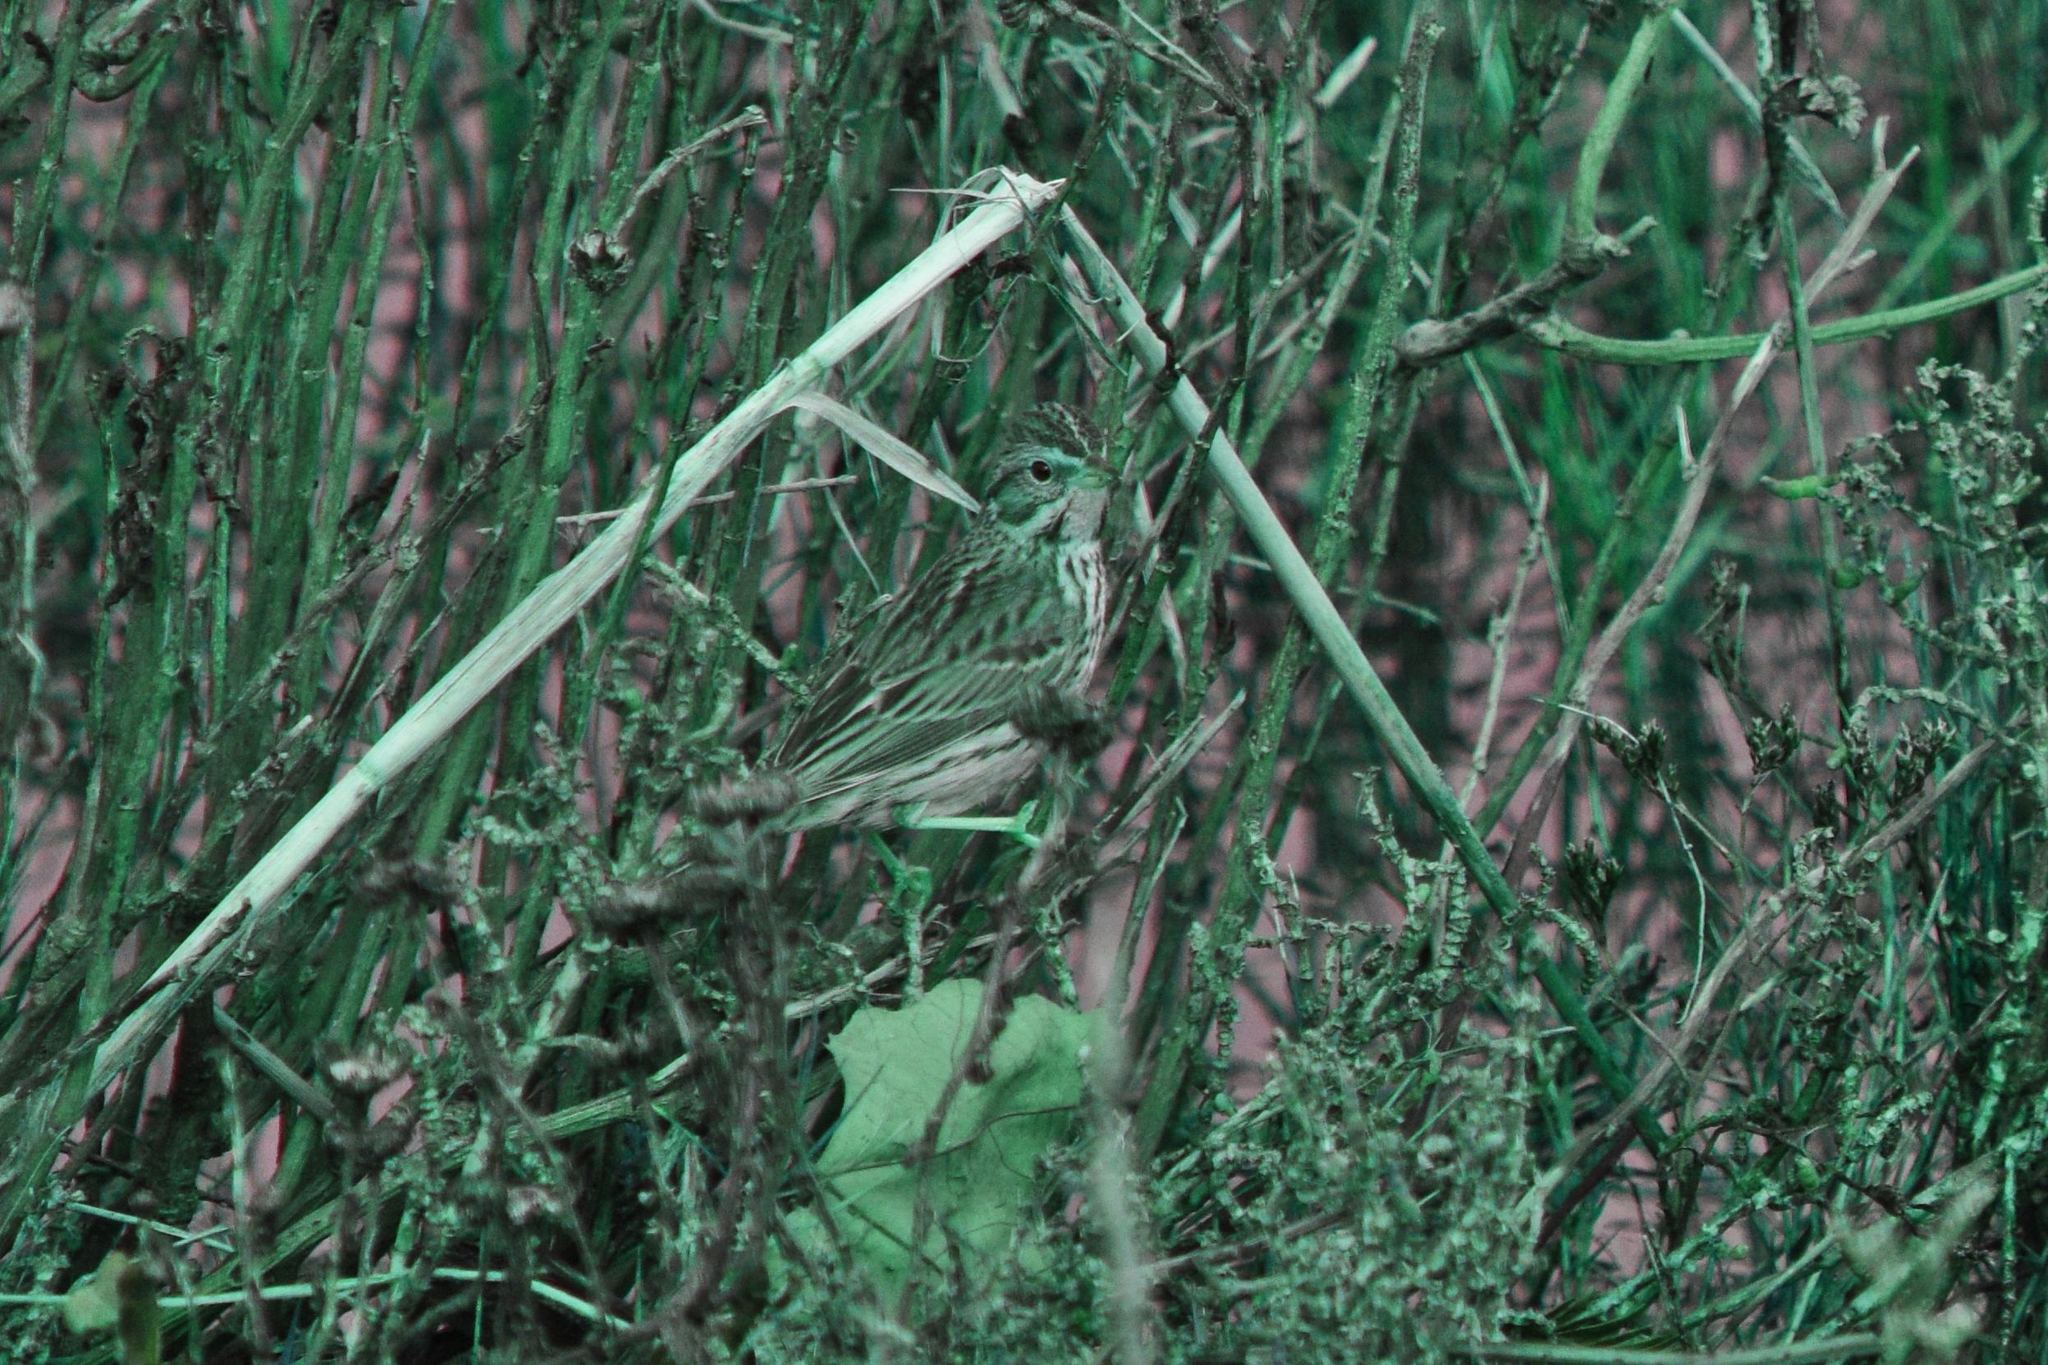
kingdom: Animalia
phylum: Chordata
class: Aves
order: Passeriformes
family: Passerellidae
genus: Passerculus
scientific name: Passerculus sandwichensis
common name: Savannah sparrow
